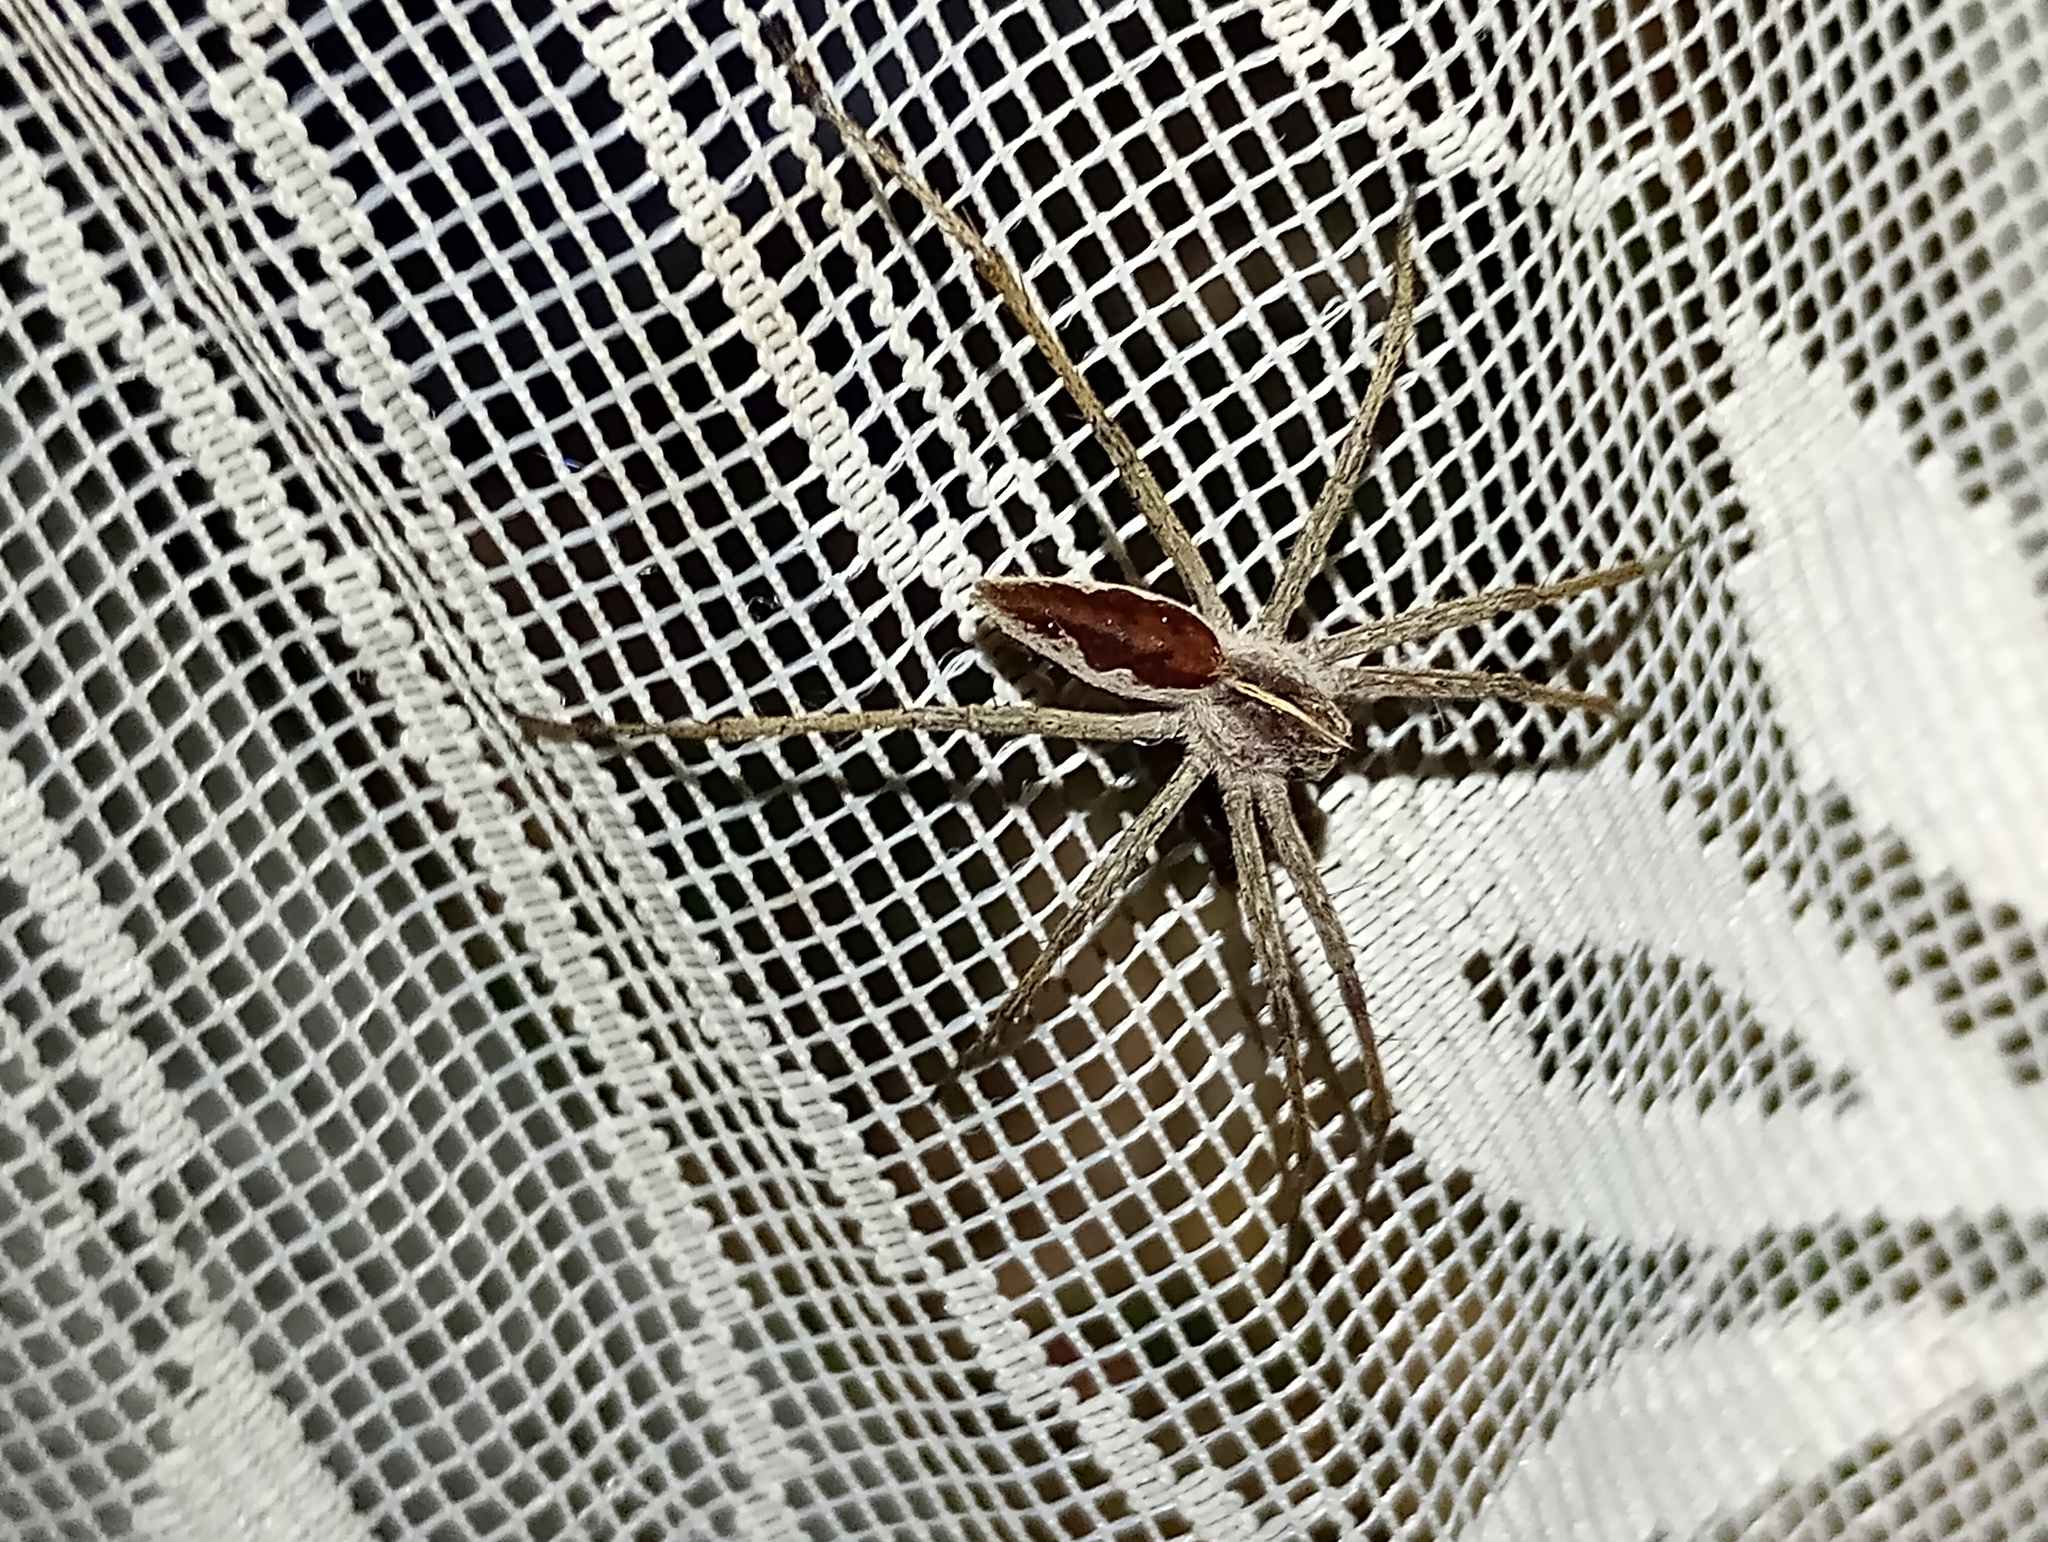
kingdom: Animalia
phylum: Arthropoda
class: Arachnida
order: Araneae
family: Pisauridae
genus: Pisaura
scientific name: Pisaura mirabilis
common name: Tent spider
